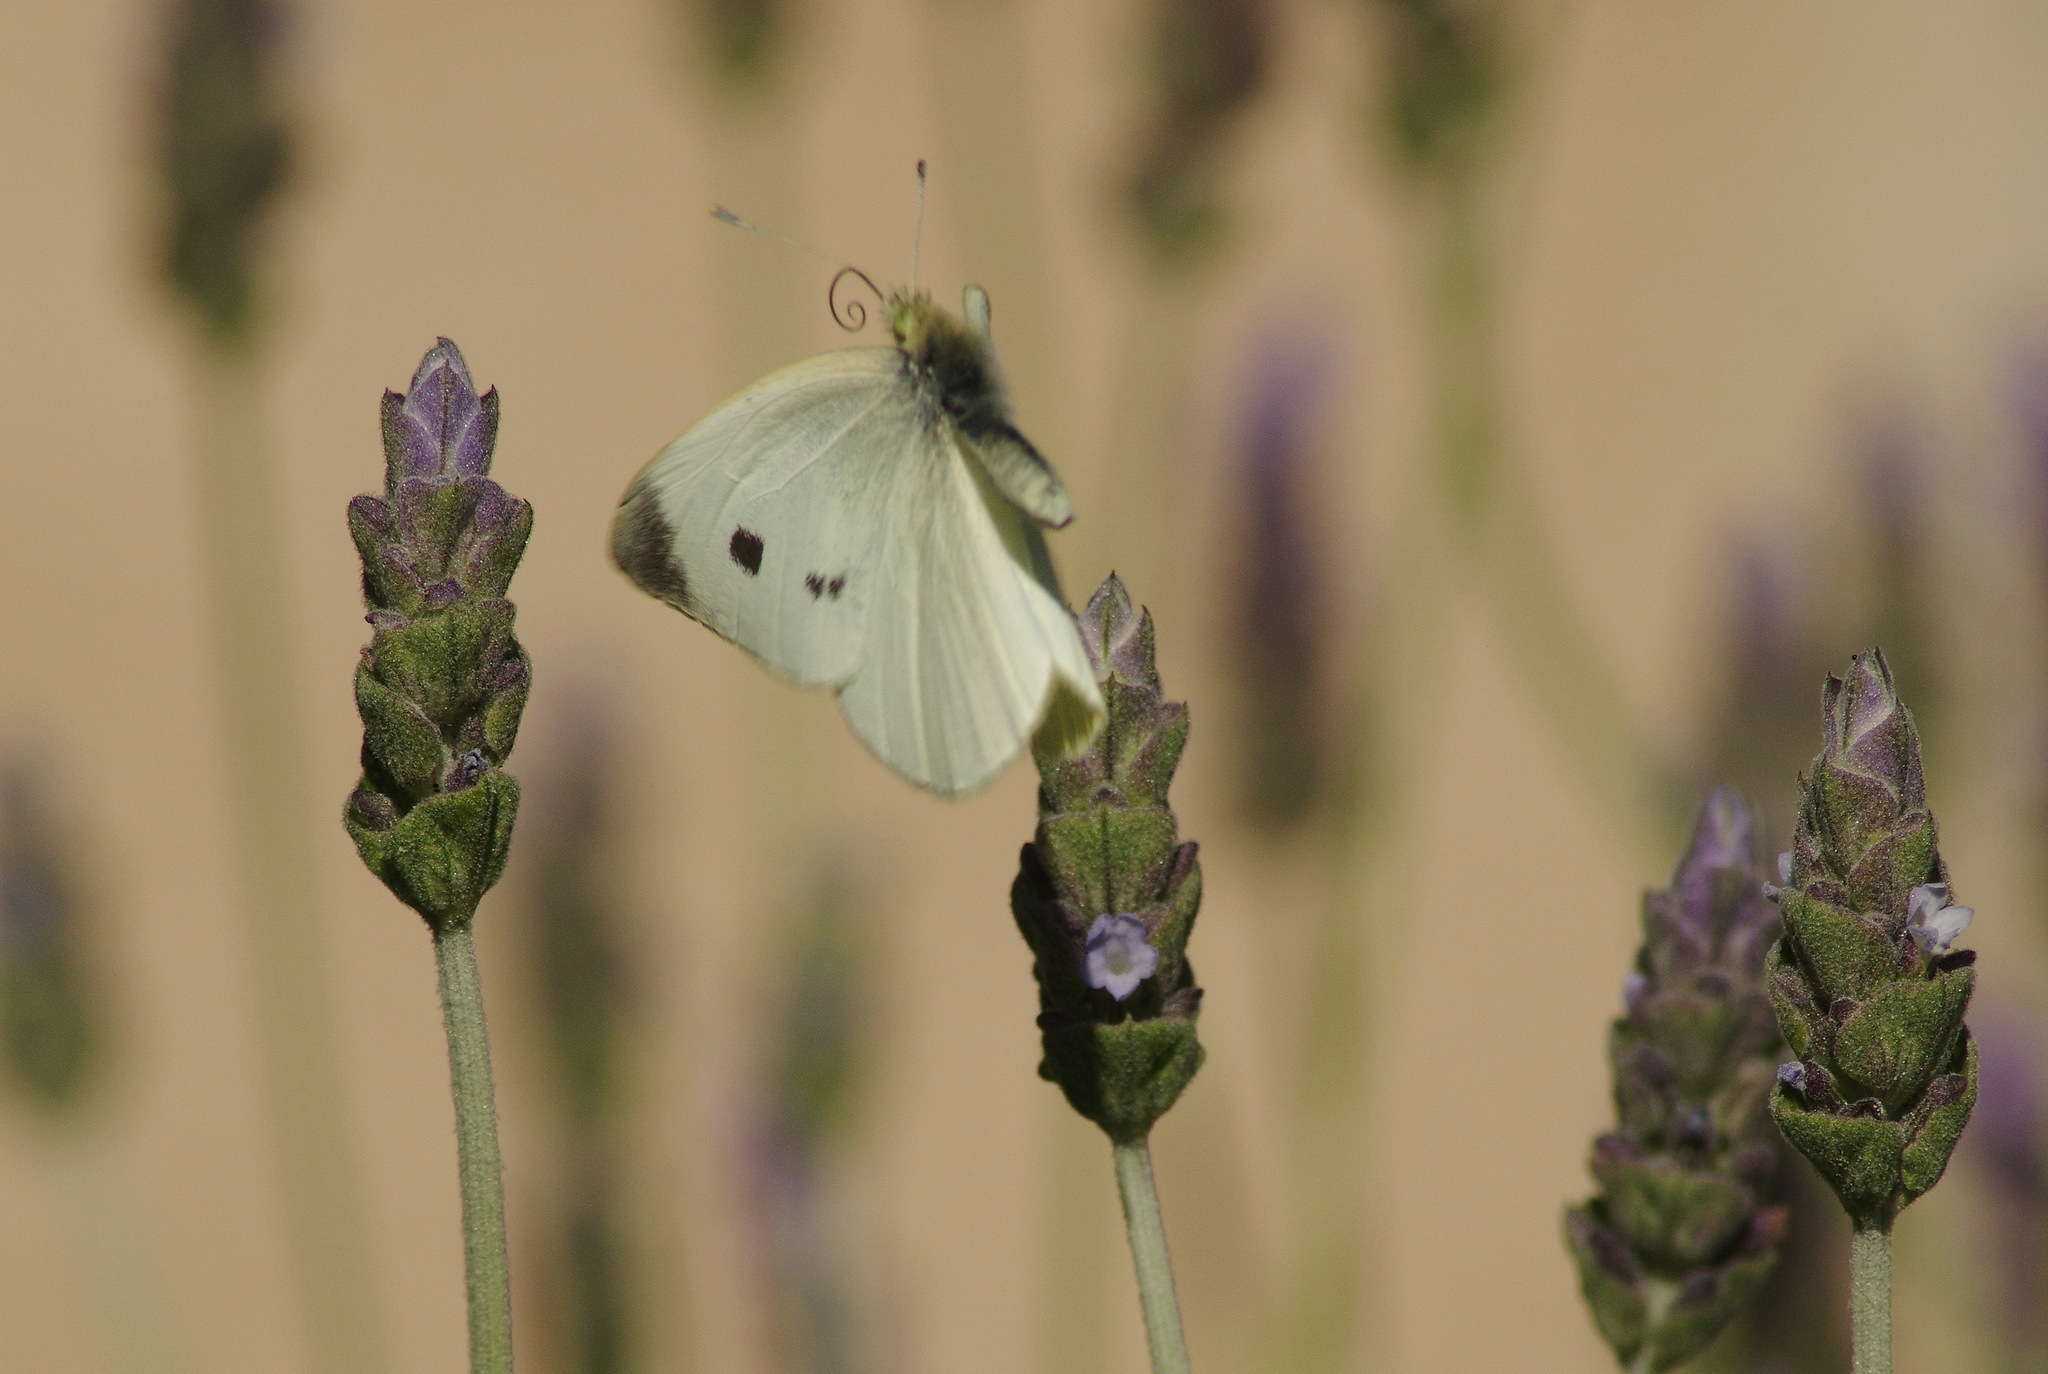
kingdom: Animalia
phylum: Arthropoda
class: Insecta
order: Lepidoptera
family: Pieridae
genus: Pieris
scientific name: Pieris rapae
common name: Small white
